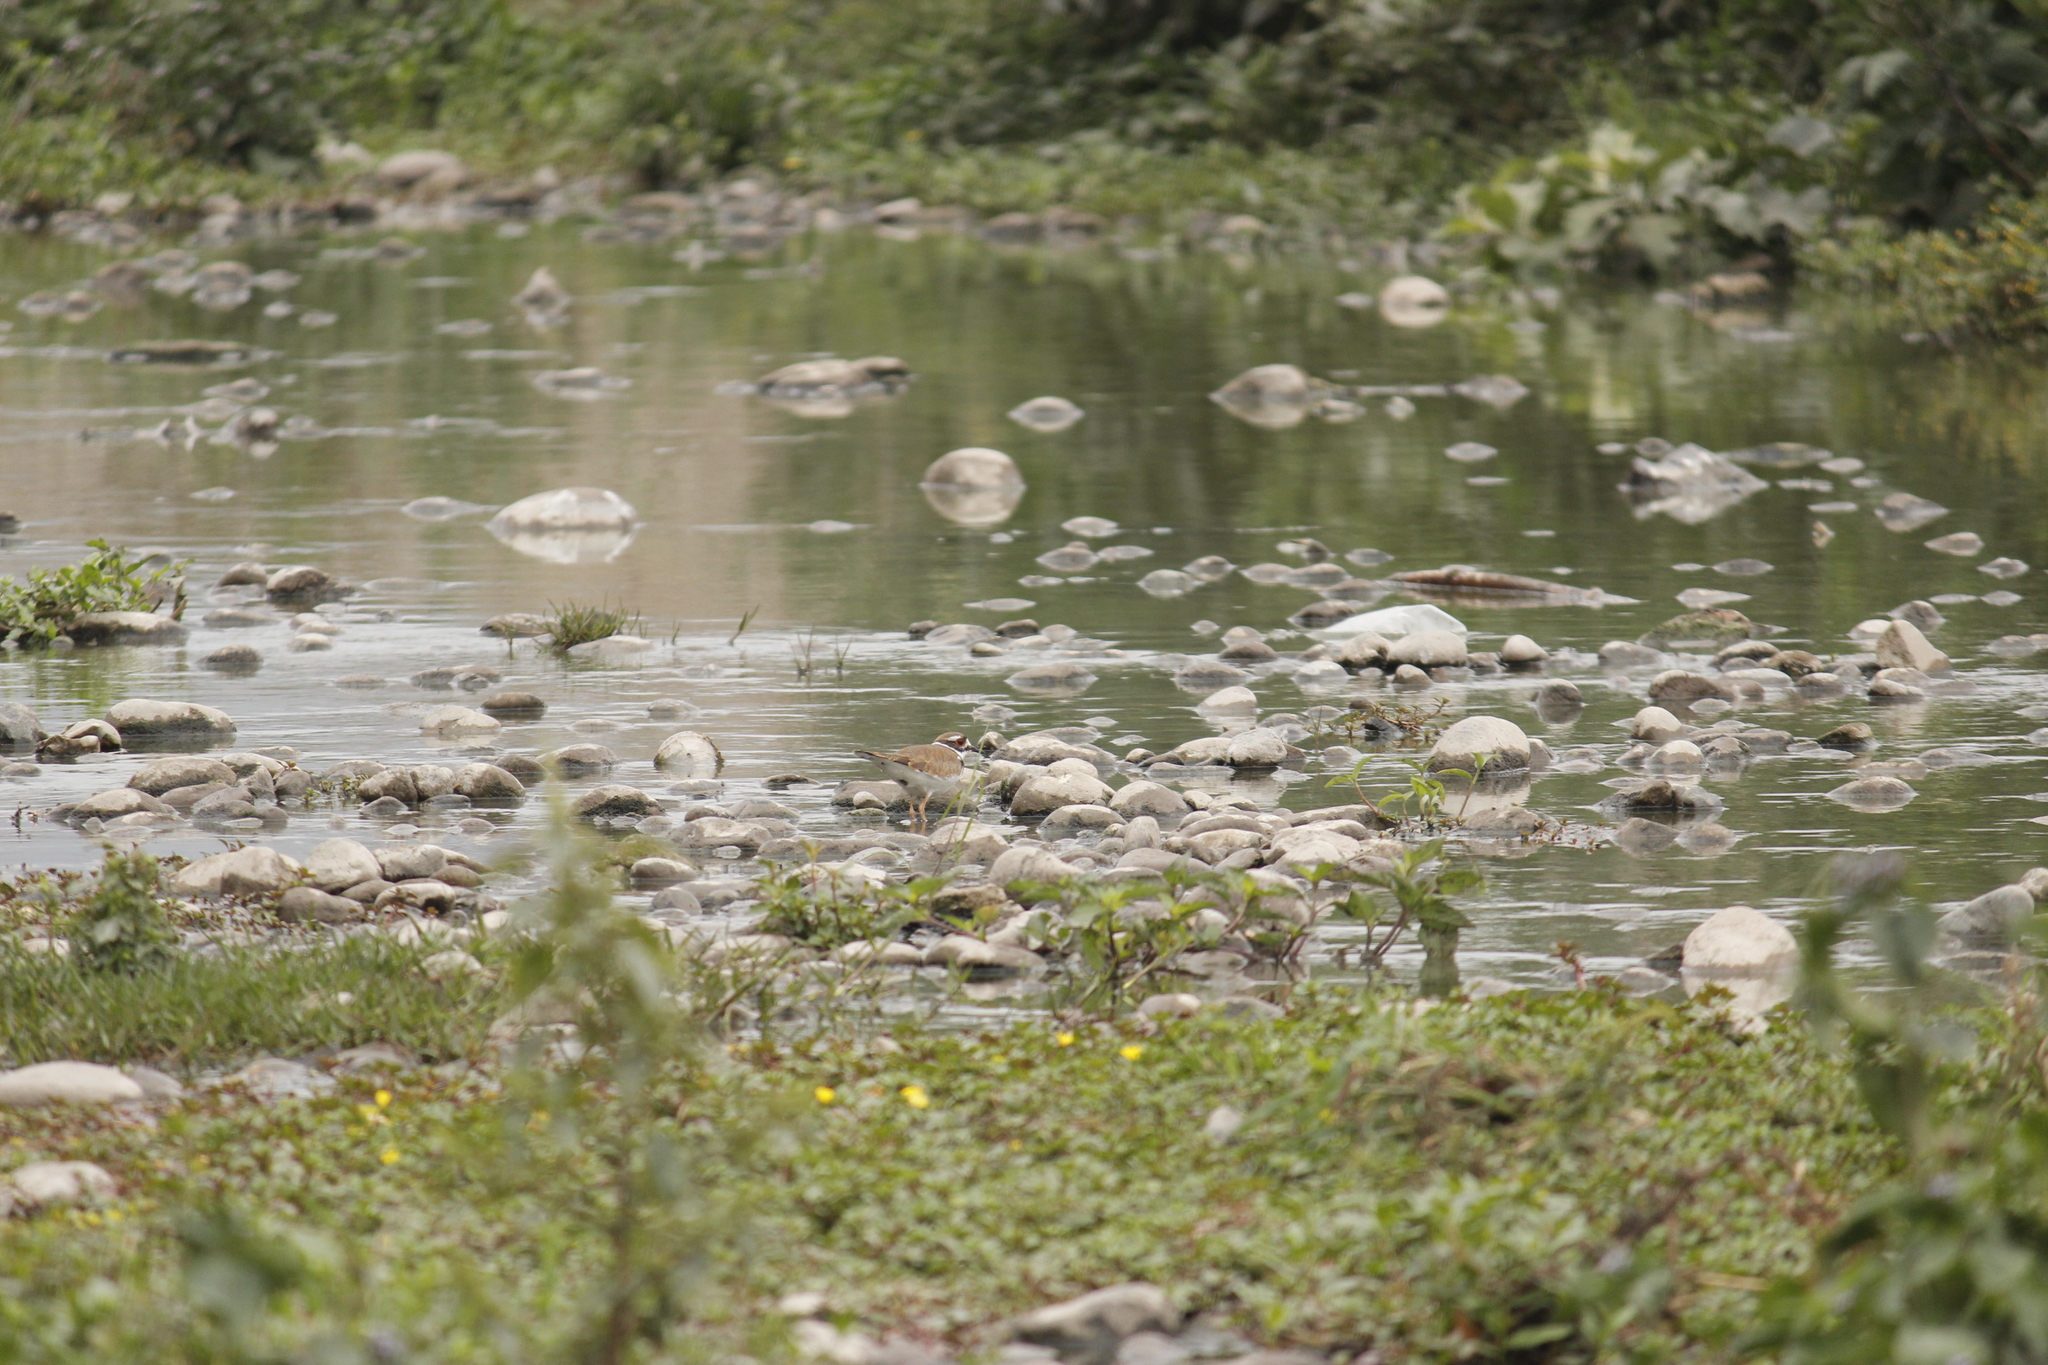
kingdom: Animalia
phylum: Chordata
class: Aves
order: Charadriiformes
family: Charadriidae
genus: Charadrius
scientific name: Charadrius vociferus
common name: Killdeer
